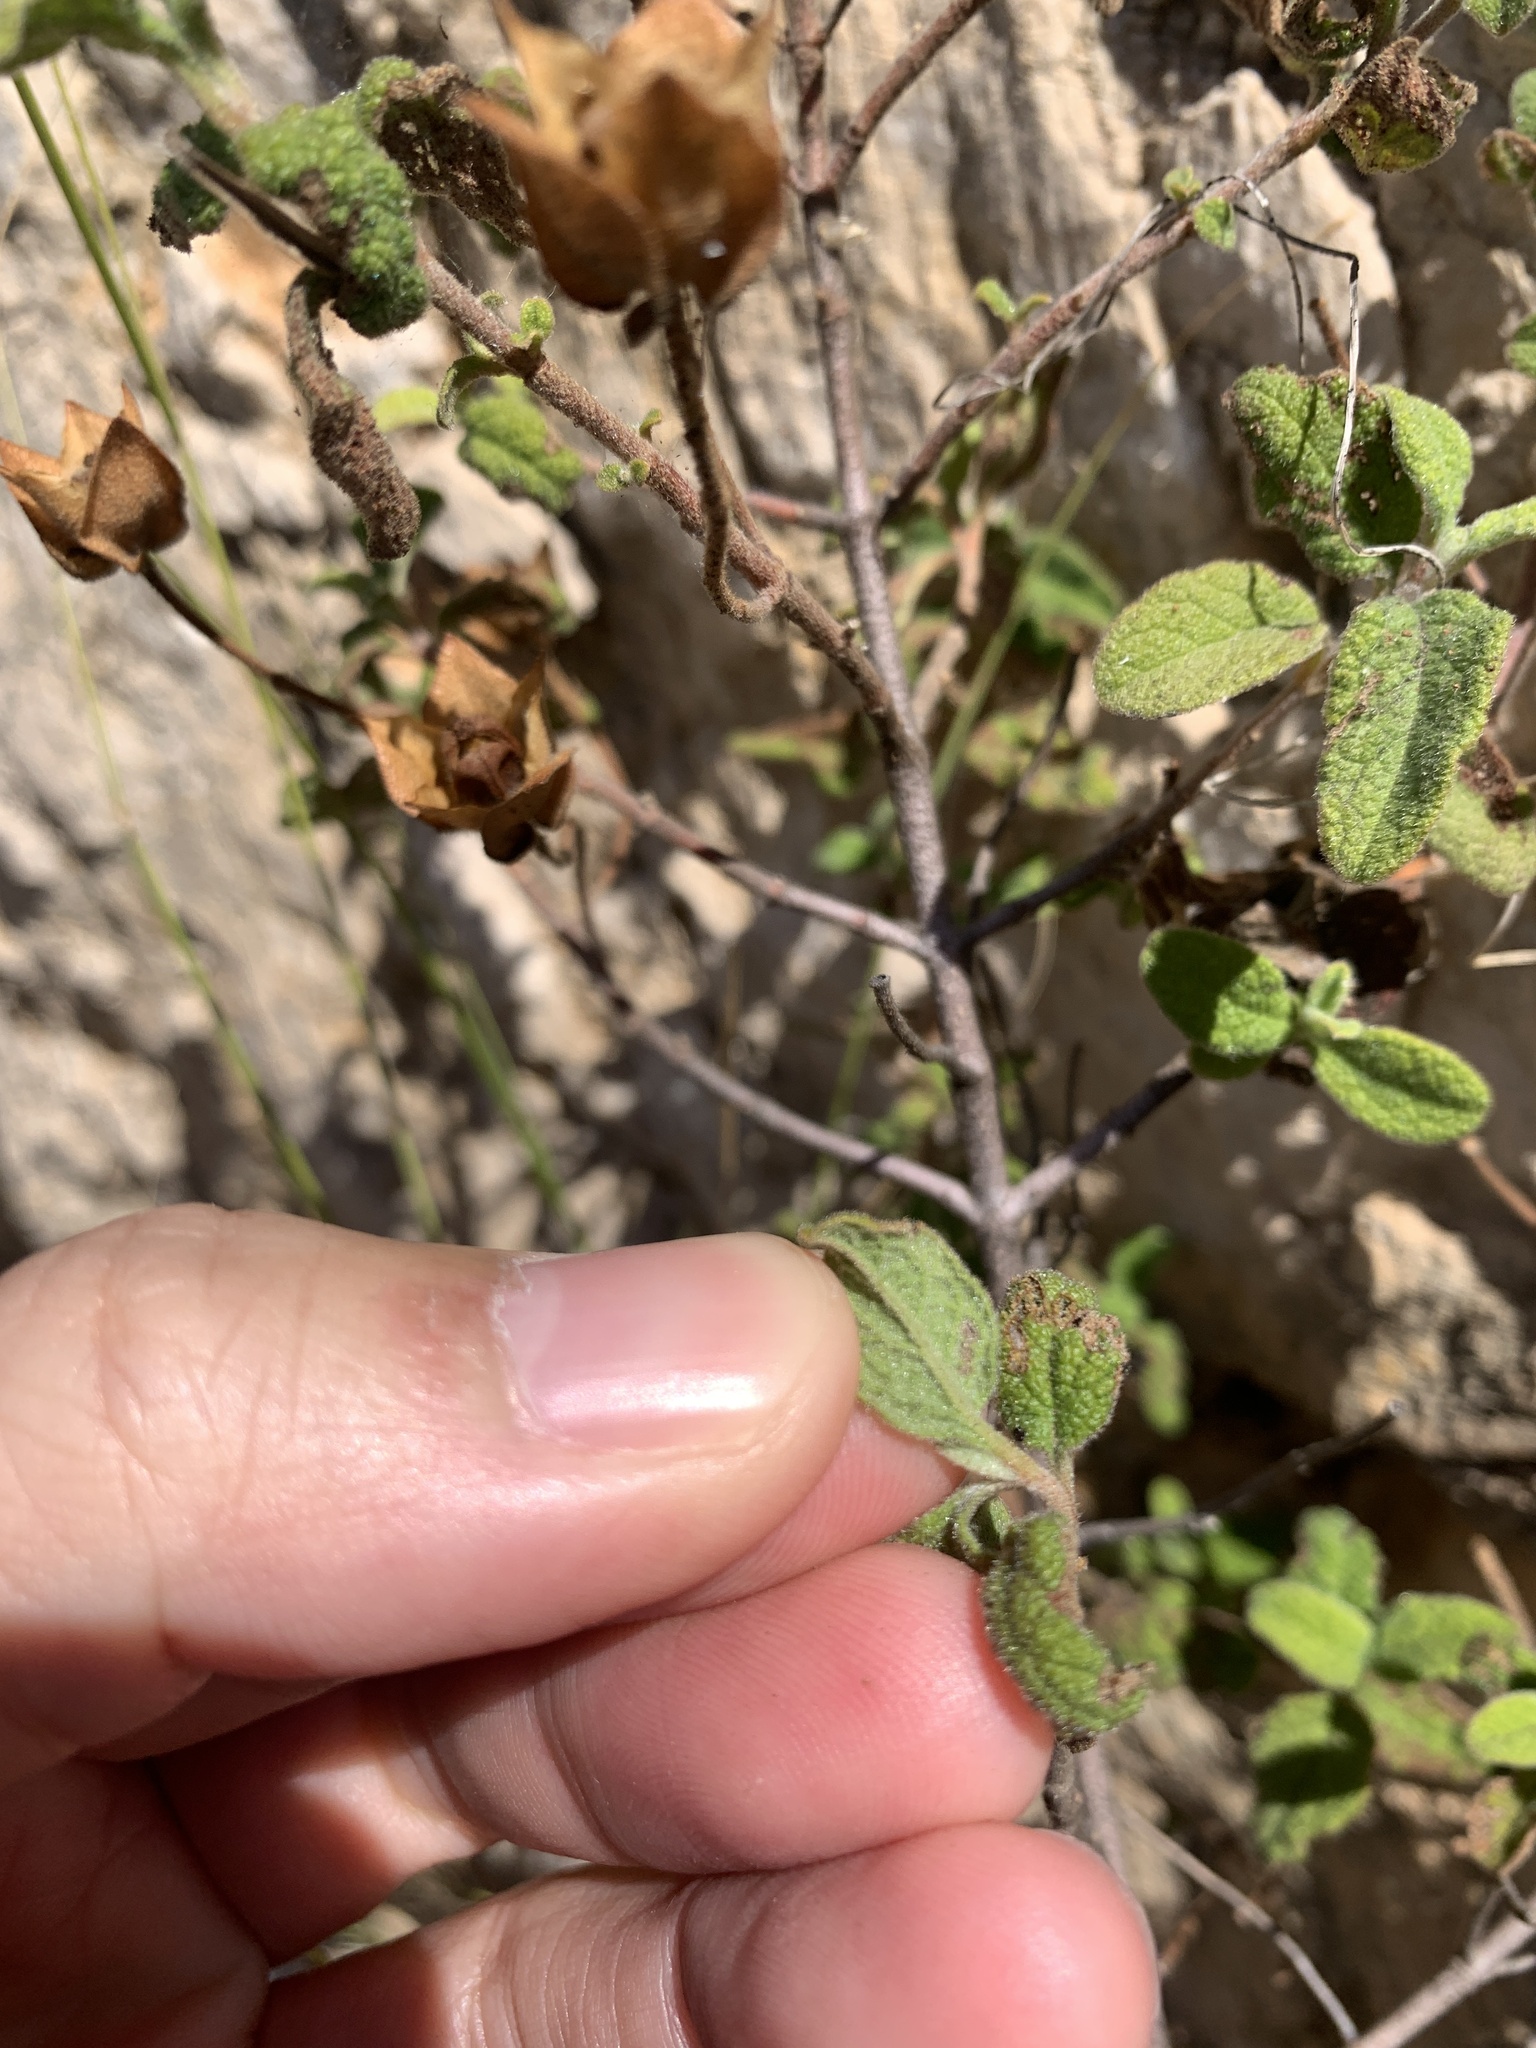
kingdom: Plantae
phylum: Tracheophyta
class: Magnoliopsida
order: Malvales
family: Cistaceae
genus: Cistus
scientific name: Cistus salviifolius
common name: Salvia cistus
